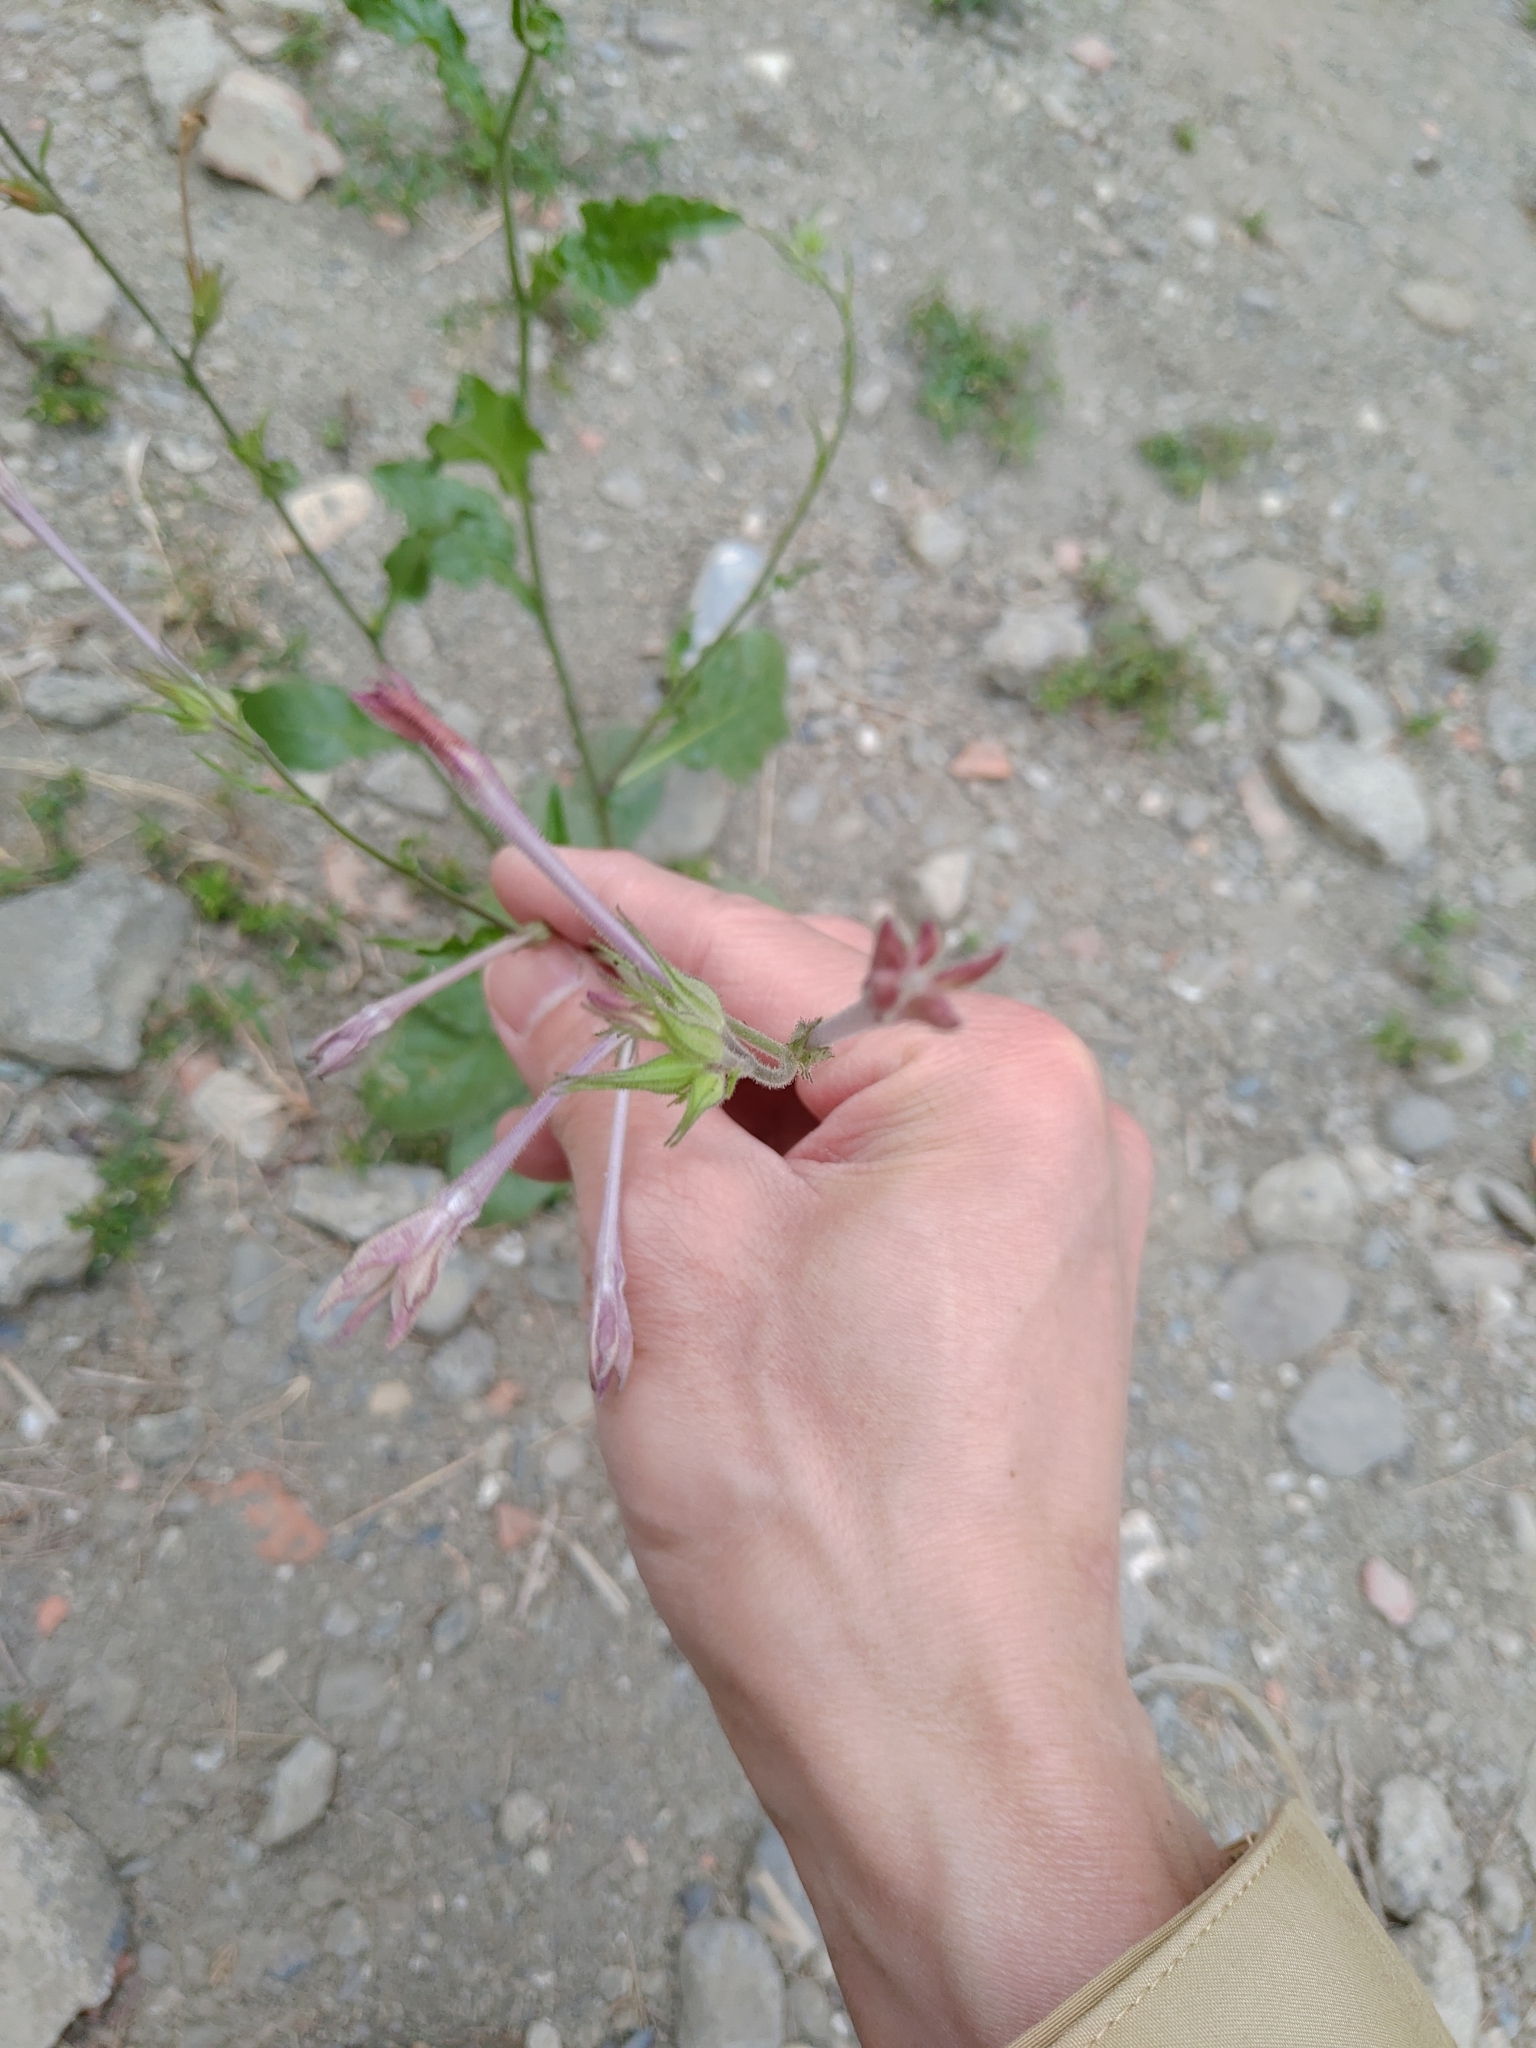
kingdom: Plantae
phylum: Tracheophyta
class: Magnoliopsida
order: Solanales
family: Solanaceae
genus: Nicotiana
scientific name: Nicotiana plumbaginifolia
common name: Tex-mex tobacco
